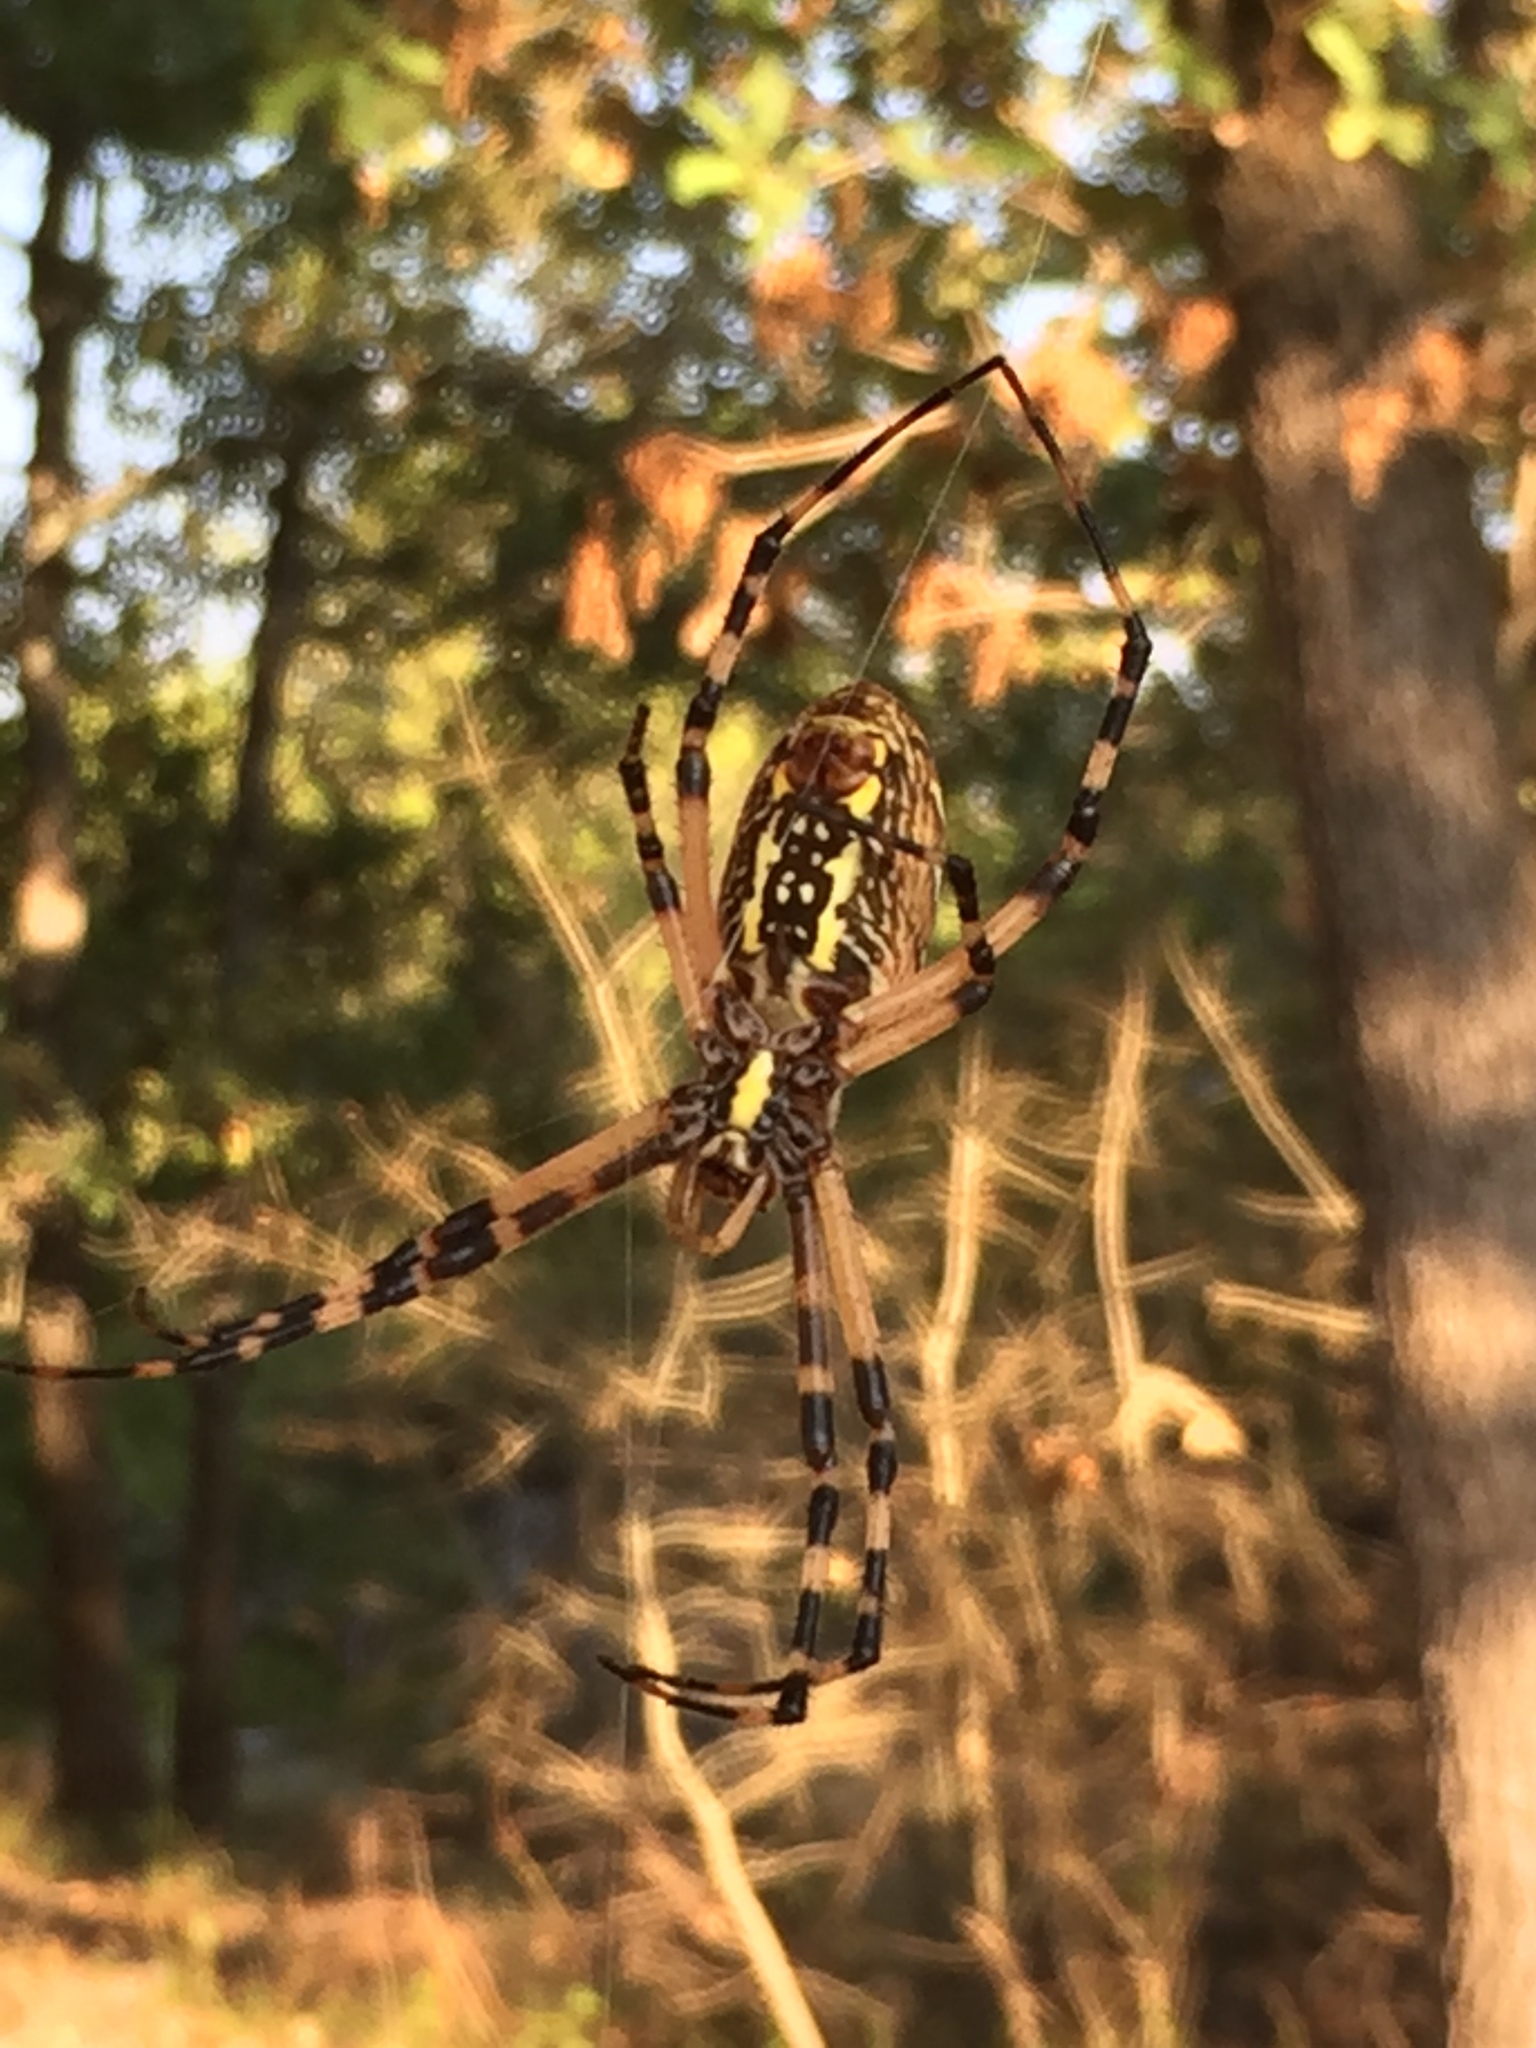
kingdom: Animalia
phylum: Arthropoda
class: Arachnida
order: Araneae
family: Araneidae
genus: Argiope
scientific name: Argiope aurantia
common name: Orb weavers
